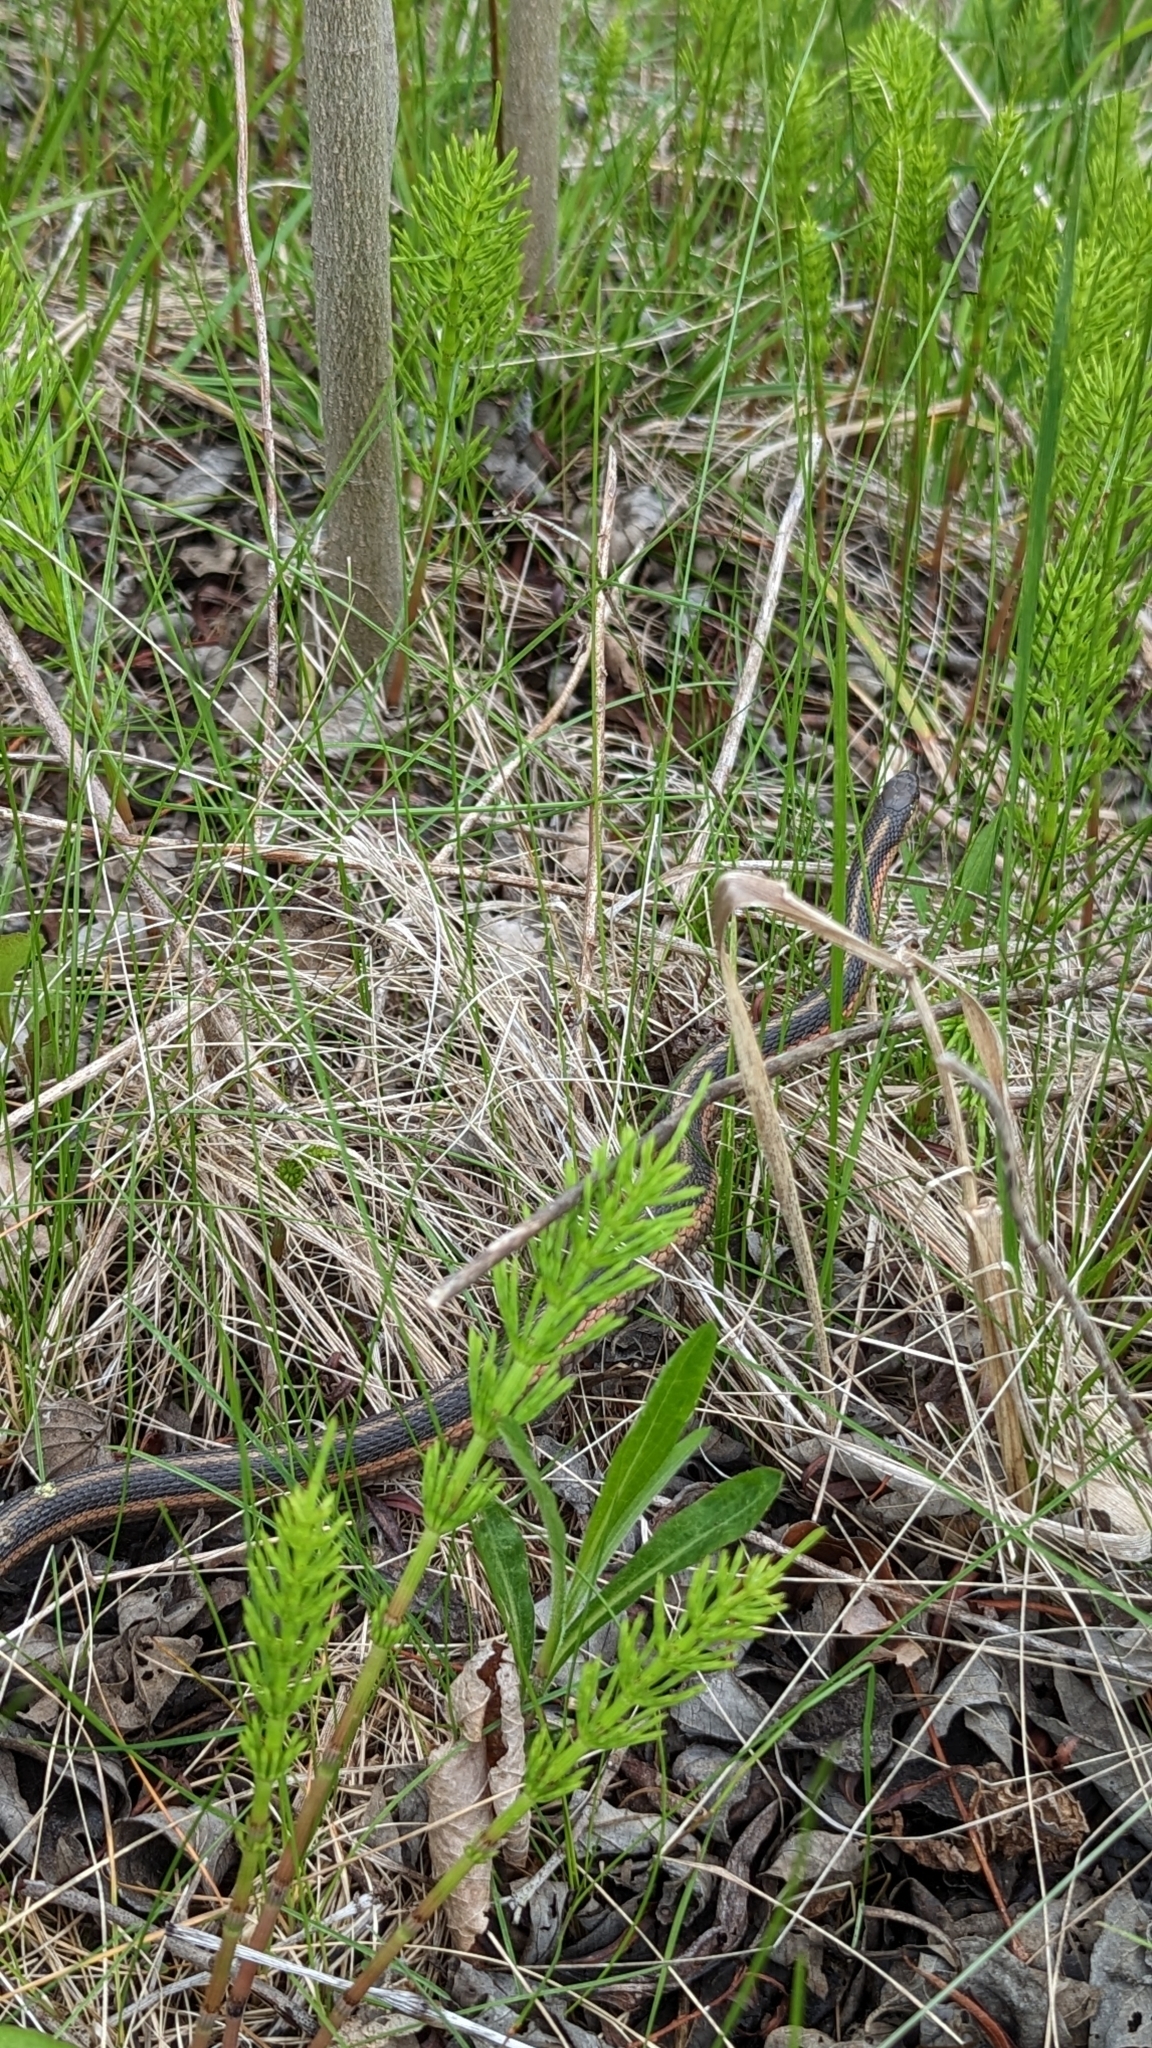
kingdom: Animalia
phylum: Chordata
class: Squamata
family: Colubridae
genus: Thamnophis
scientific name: Thamnophis sirtalis
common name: Common garter snake
